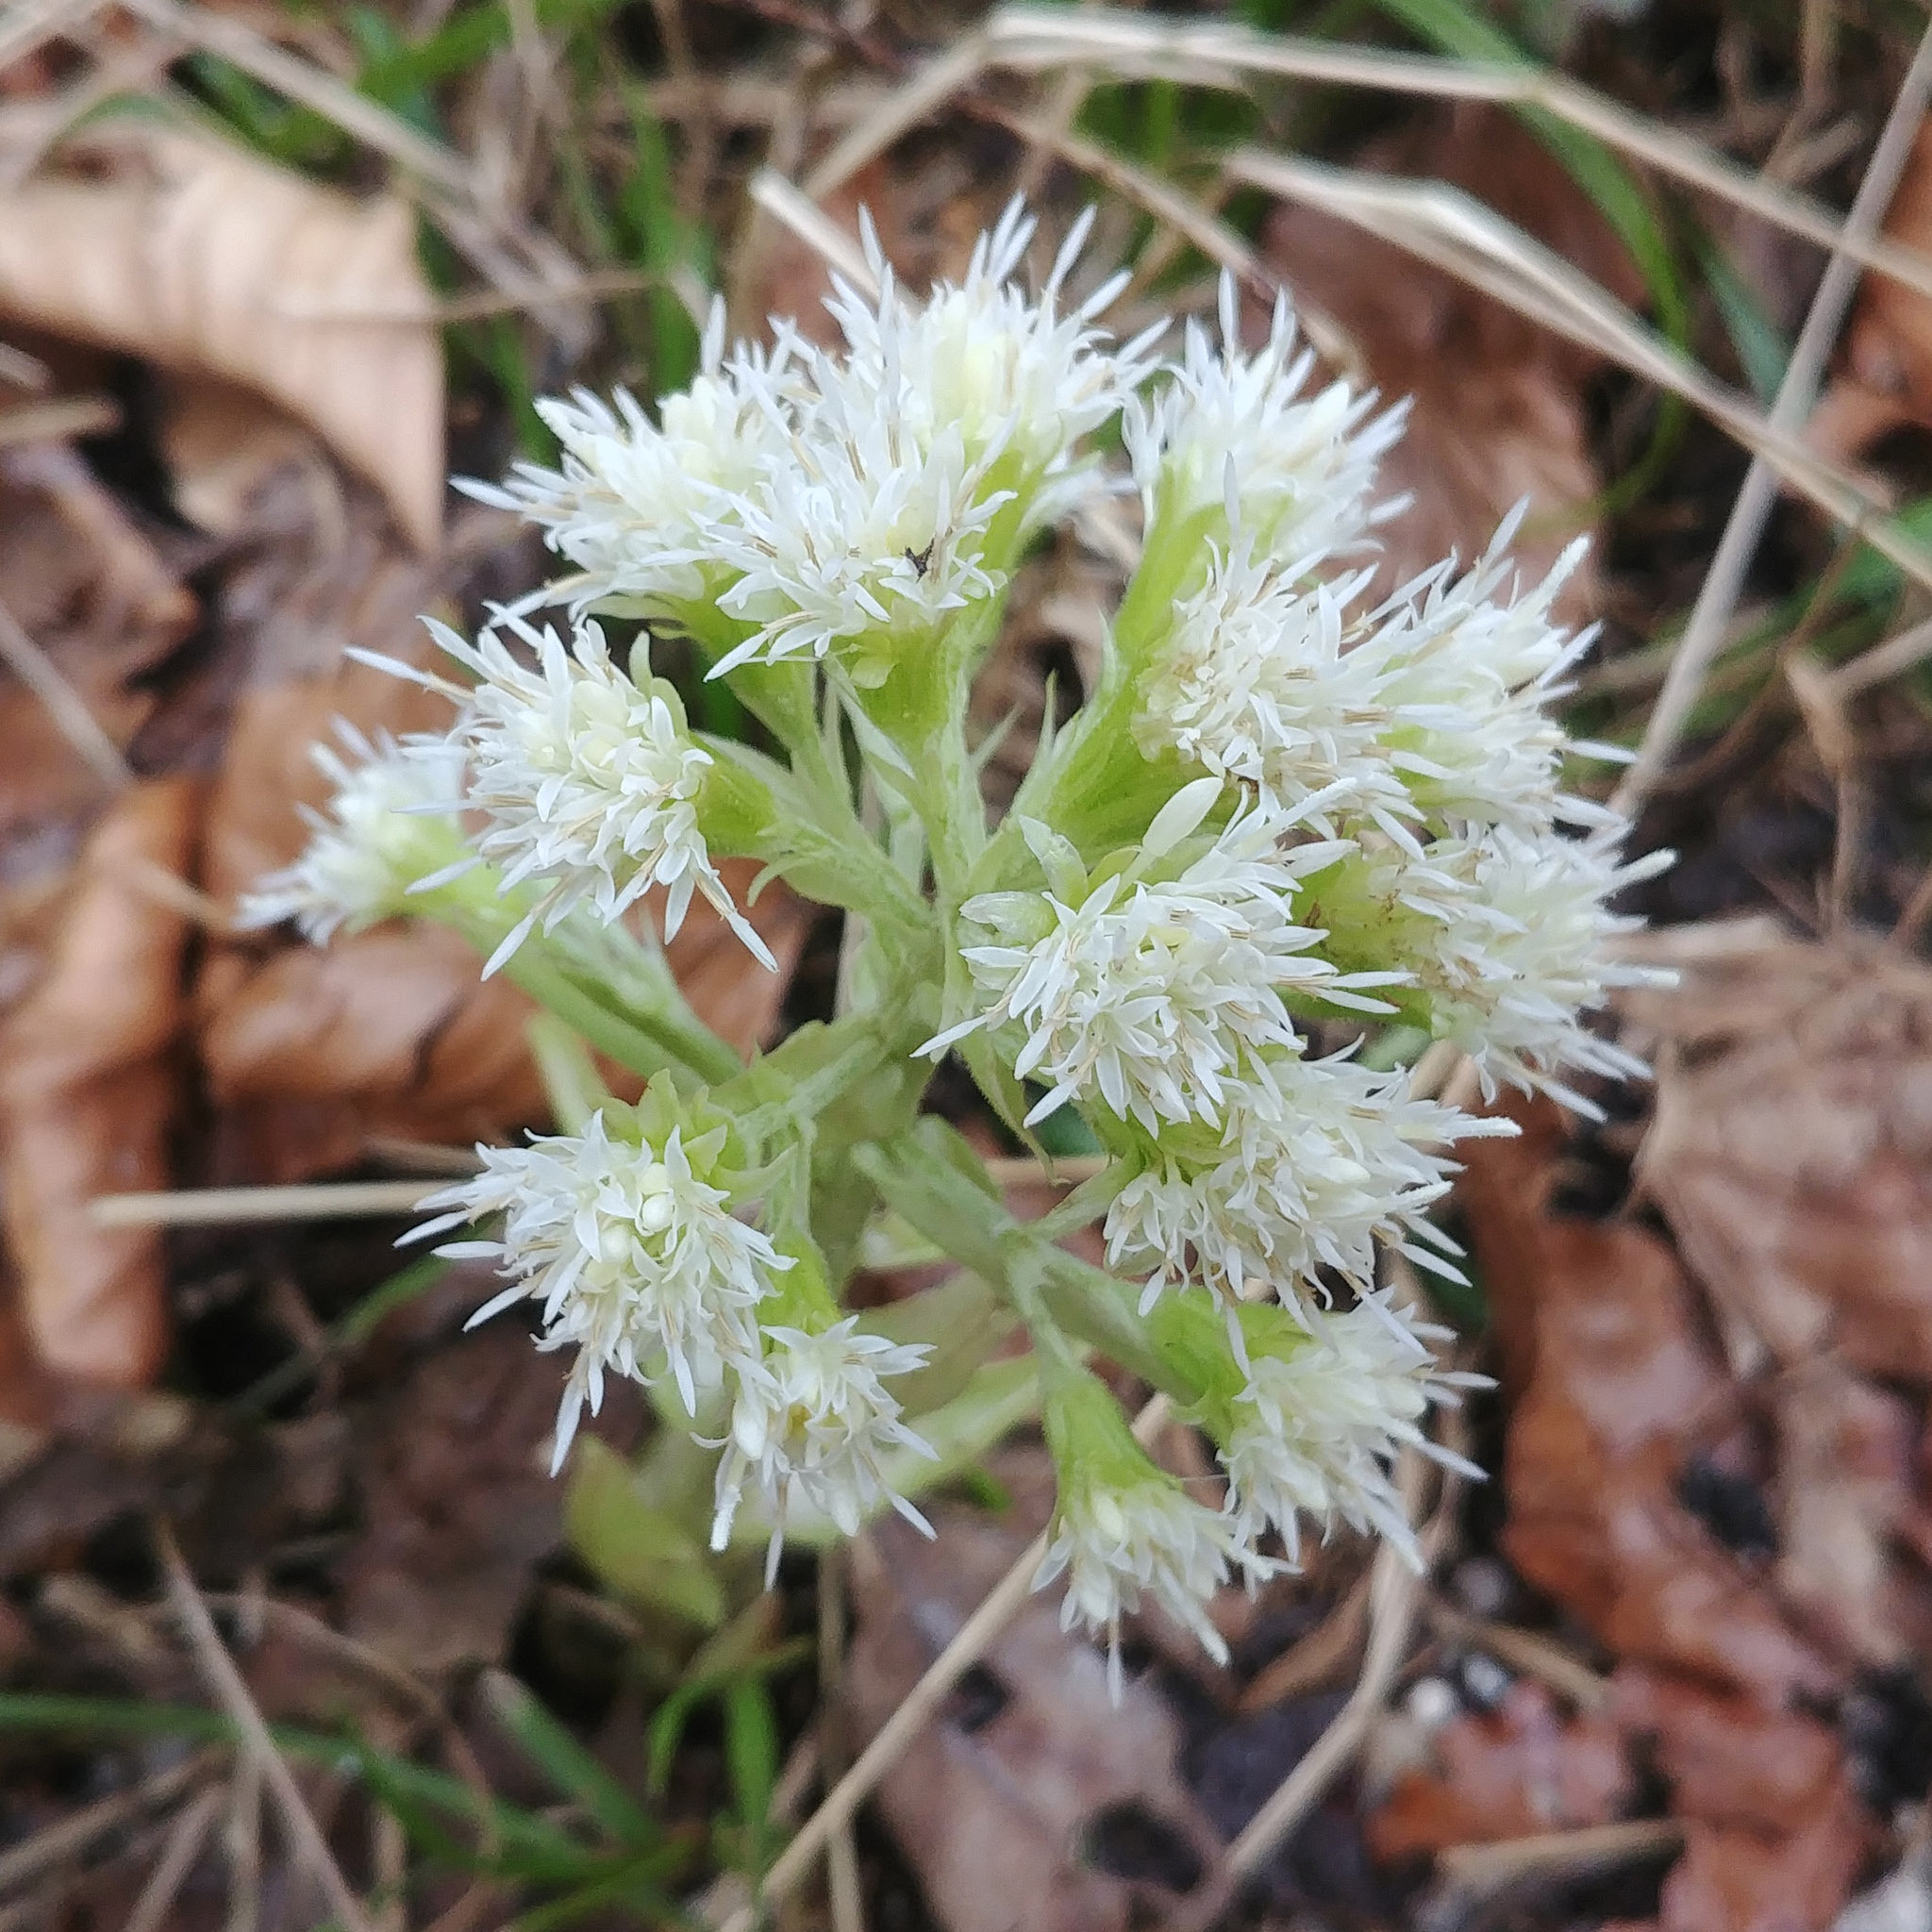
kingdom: Plantae
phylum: Tracheophyta
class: Magnoliopsida
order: Asterales
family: Asteraceae
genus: Petasites
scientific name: Petasites albus
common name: White butterbur
